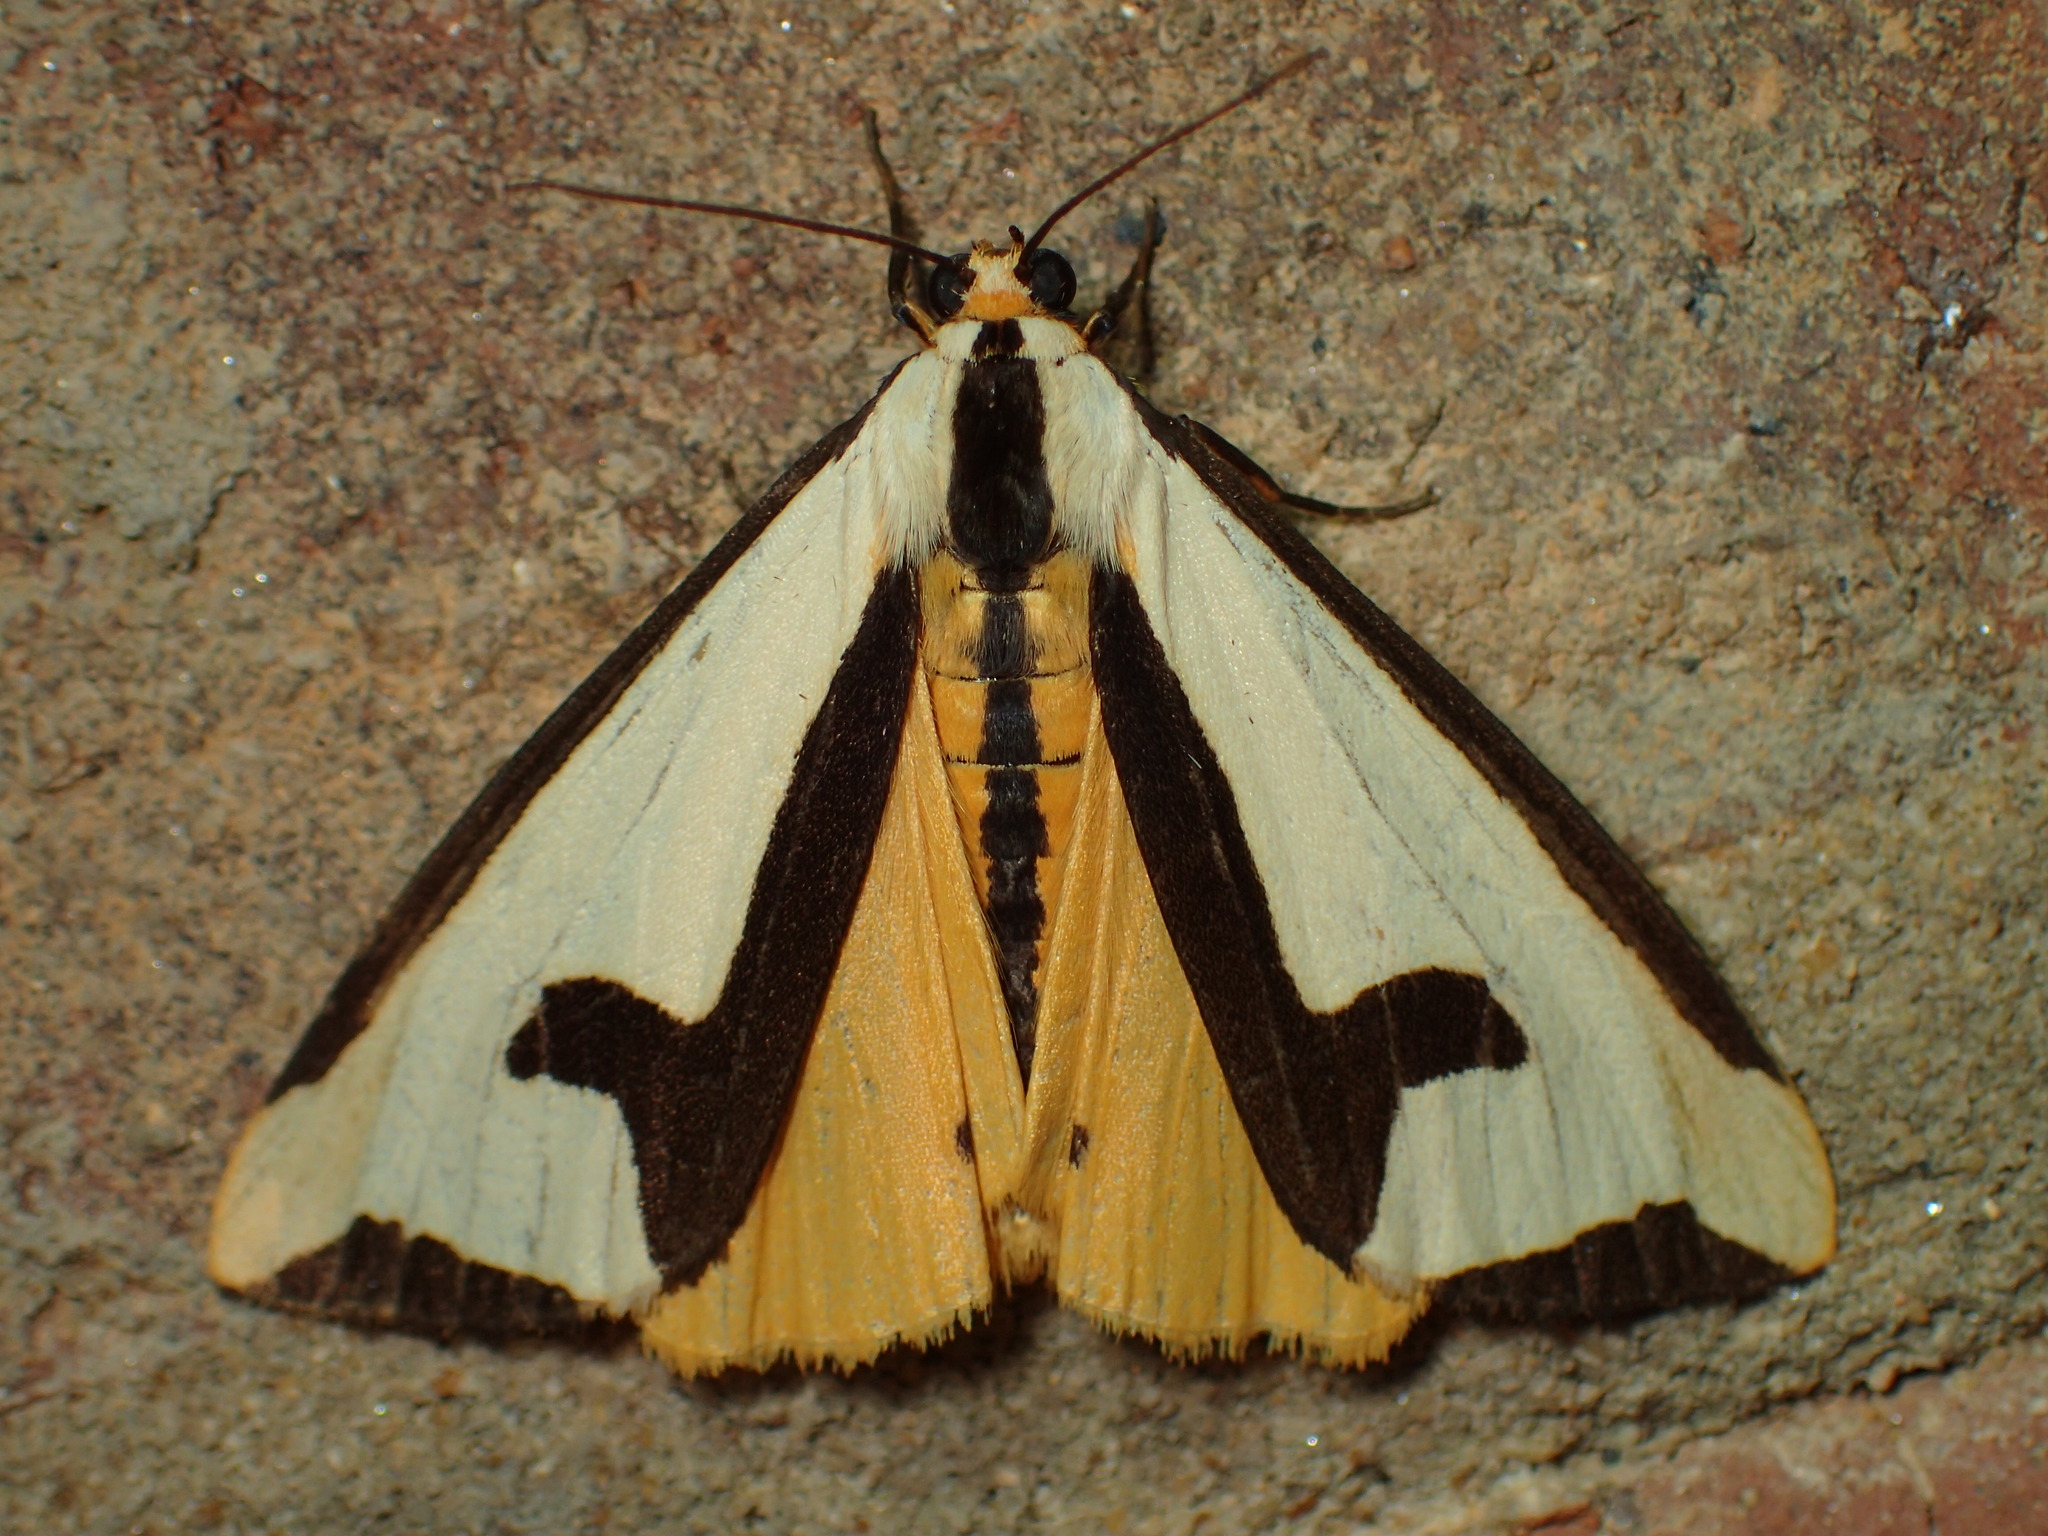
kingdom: Animalia
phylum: Arthropoda
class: Insecta
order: Lepidoptera
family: Erebidae
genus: Haploa
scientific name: Haploa clymene
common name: Clymene moth
